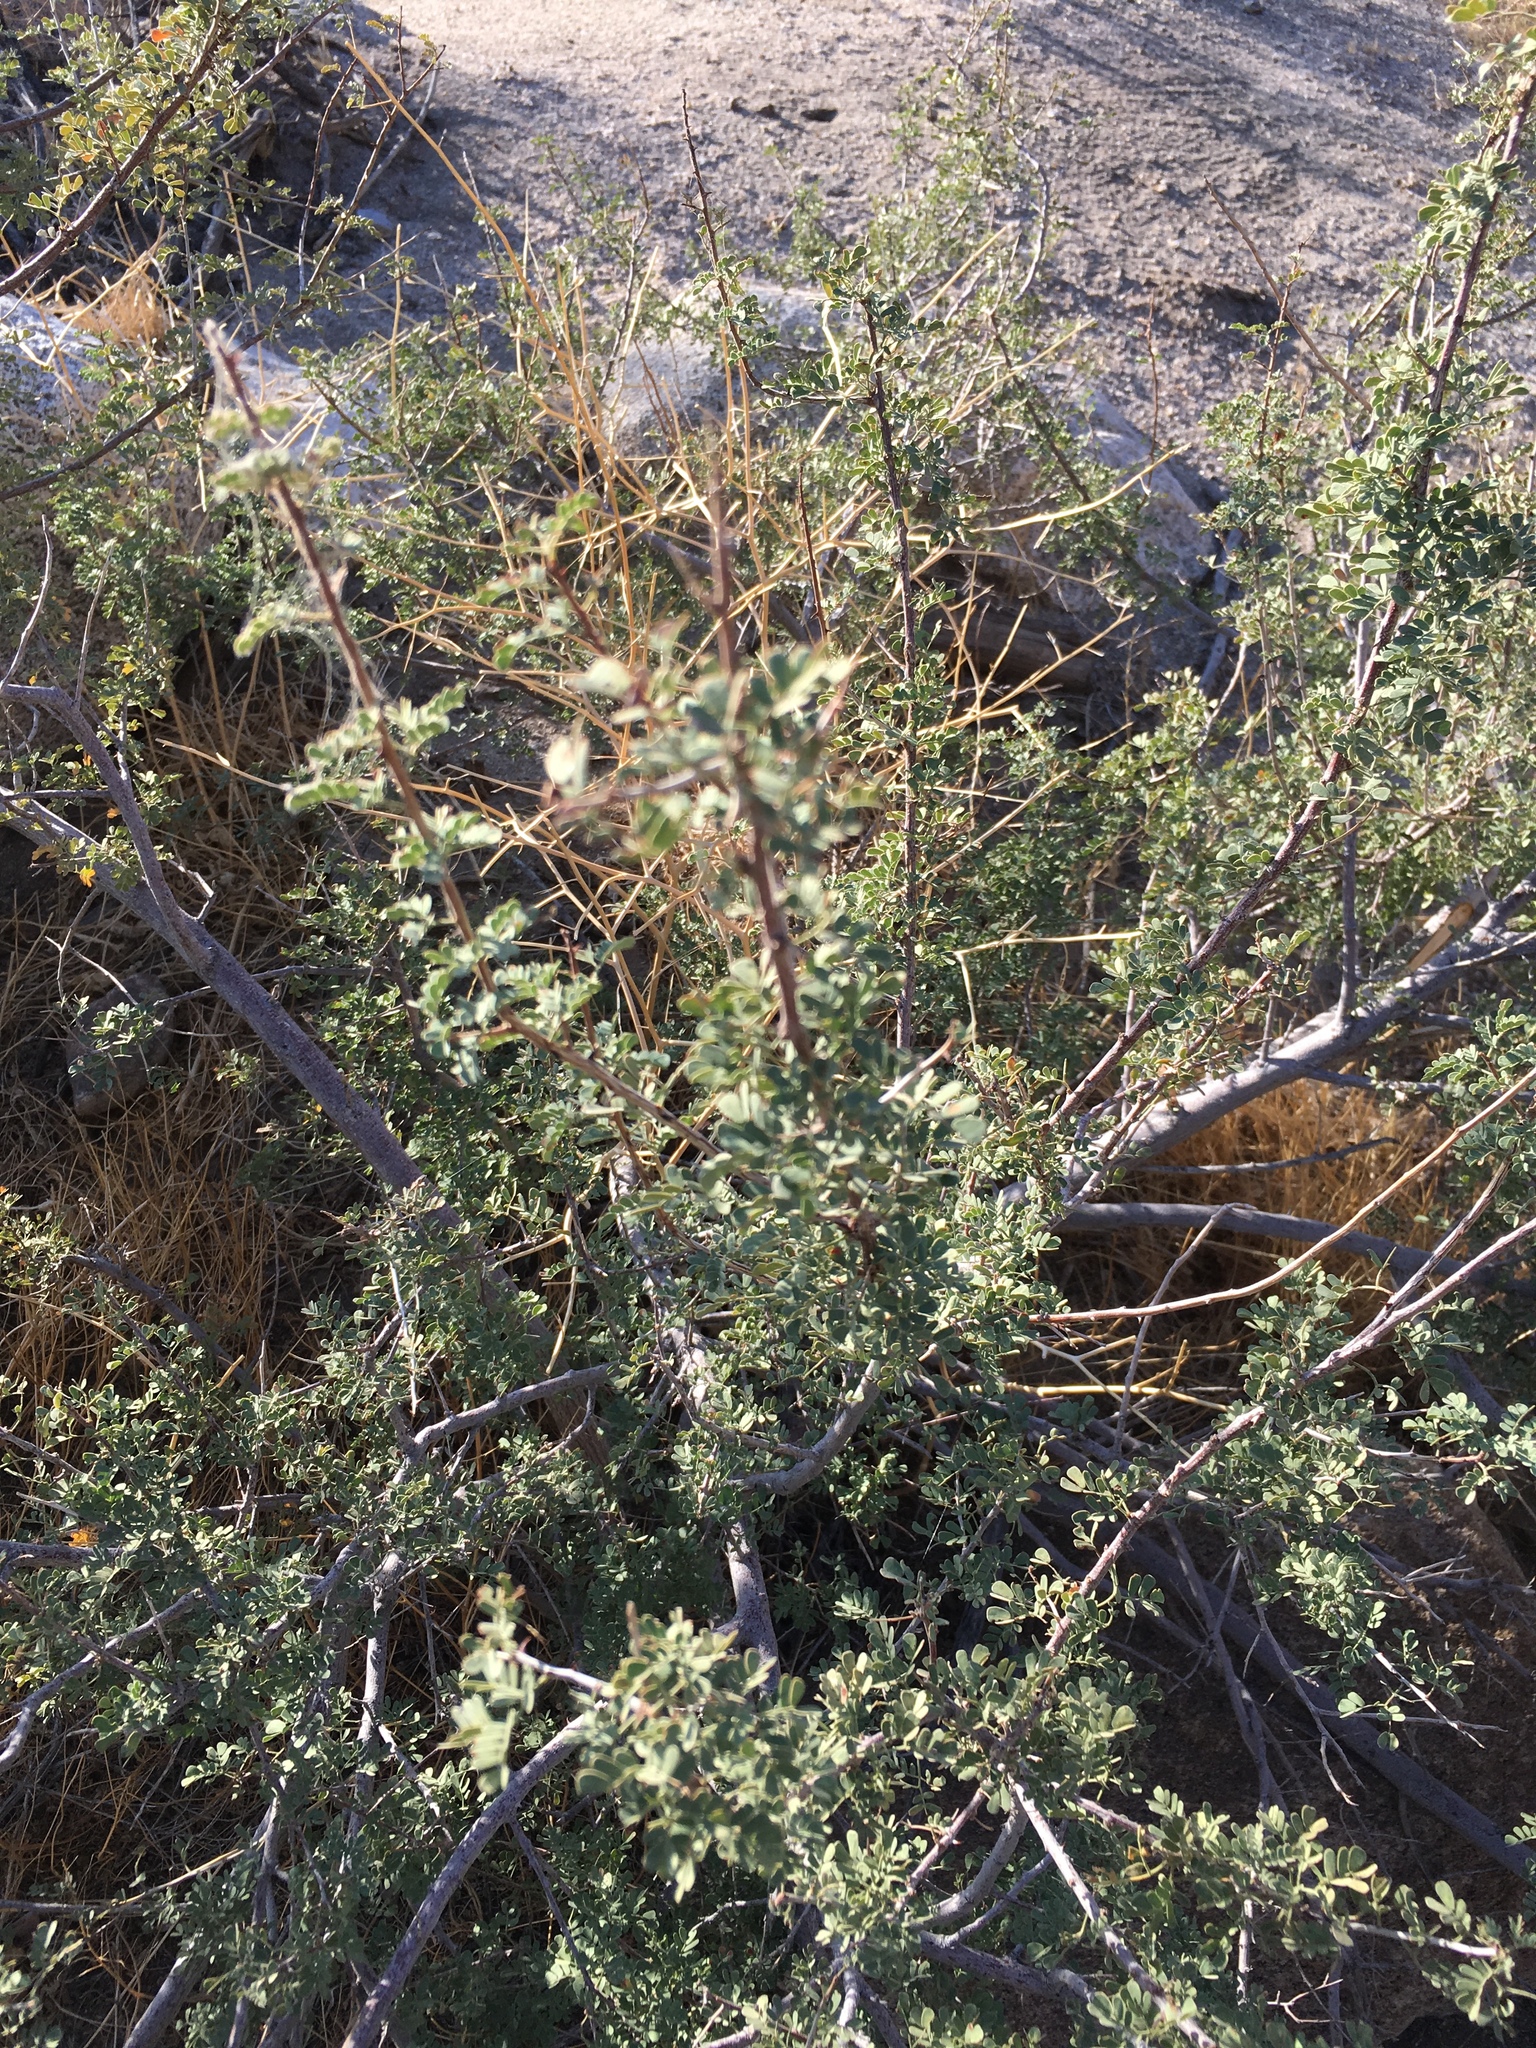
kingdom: Plantae
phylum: Tracheophyta
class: Magnoliopsida
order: Fabales
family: Fabaceae
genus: Senegalia
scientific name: Senegalia greggii
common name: Texas-mimosa
